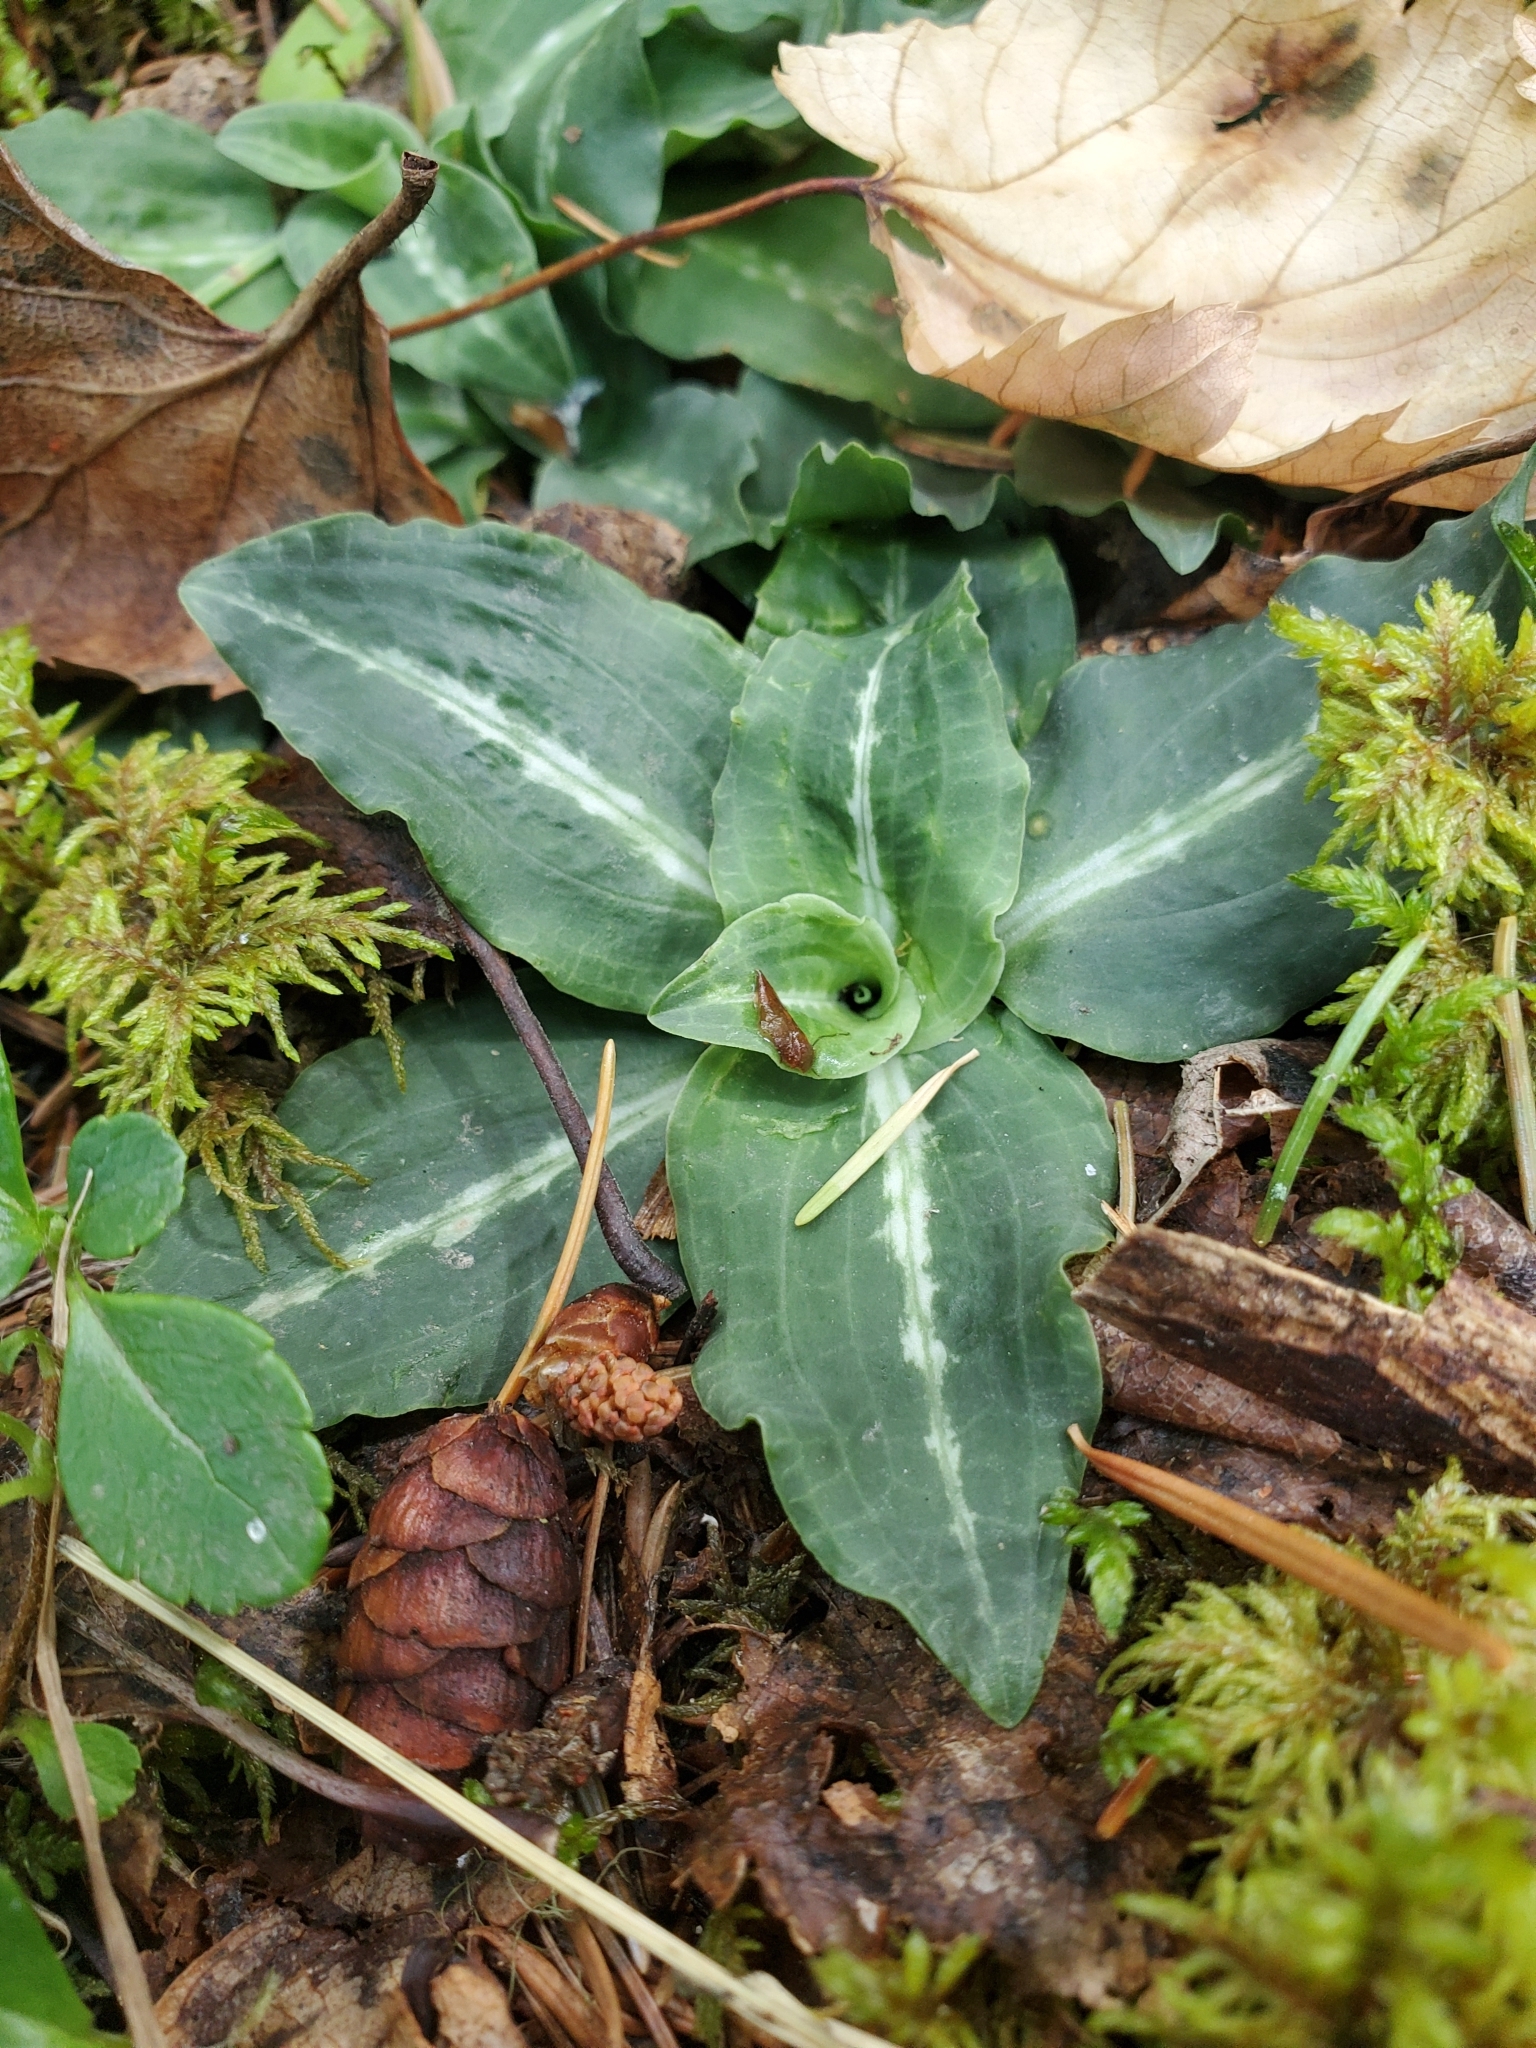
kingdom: Plantae
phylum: Tracheophyta
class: Liliopsida
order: Asparagales
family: Orchidaceae
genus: Goodyera
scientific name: Goodyera oblongifolia
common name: Giant rattlesnake-plantain
